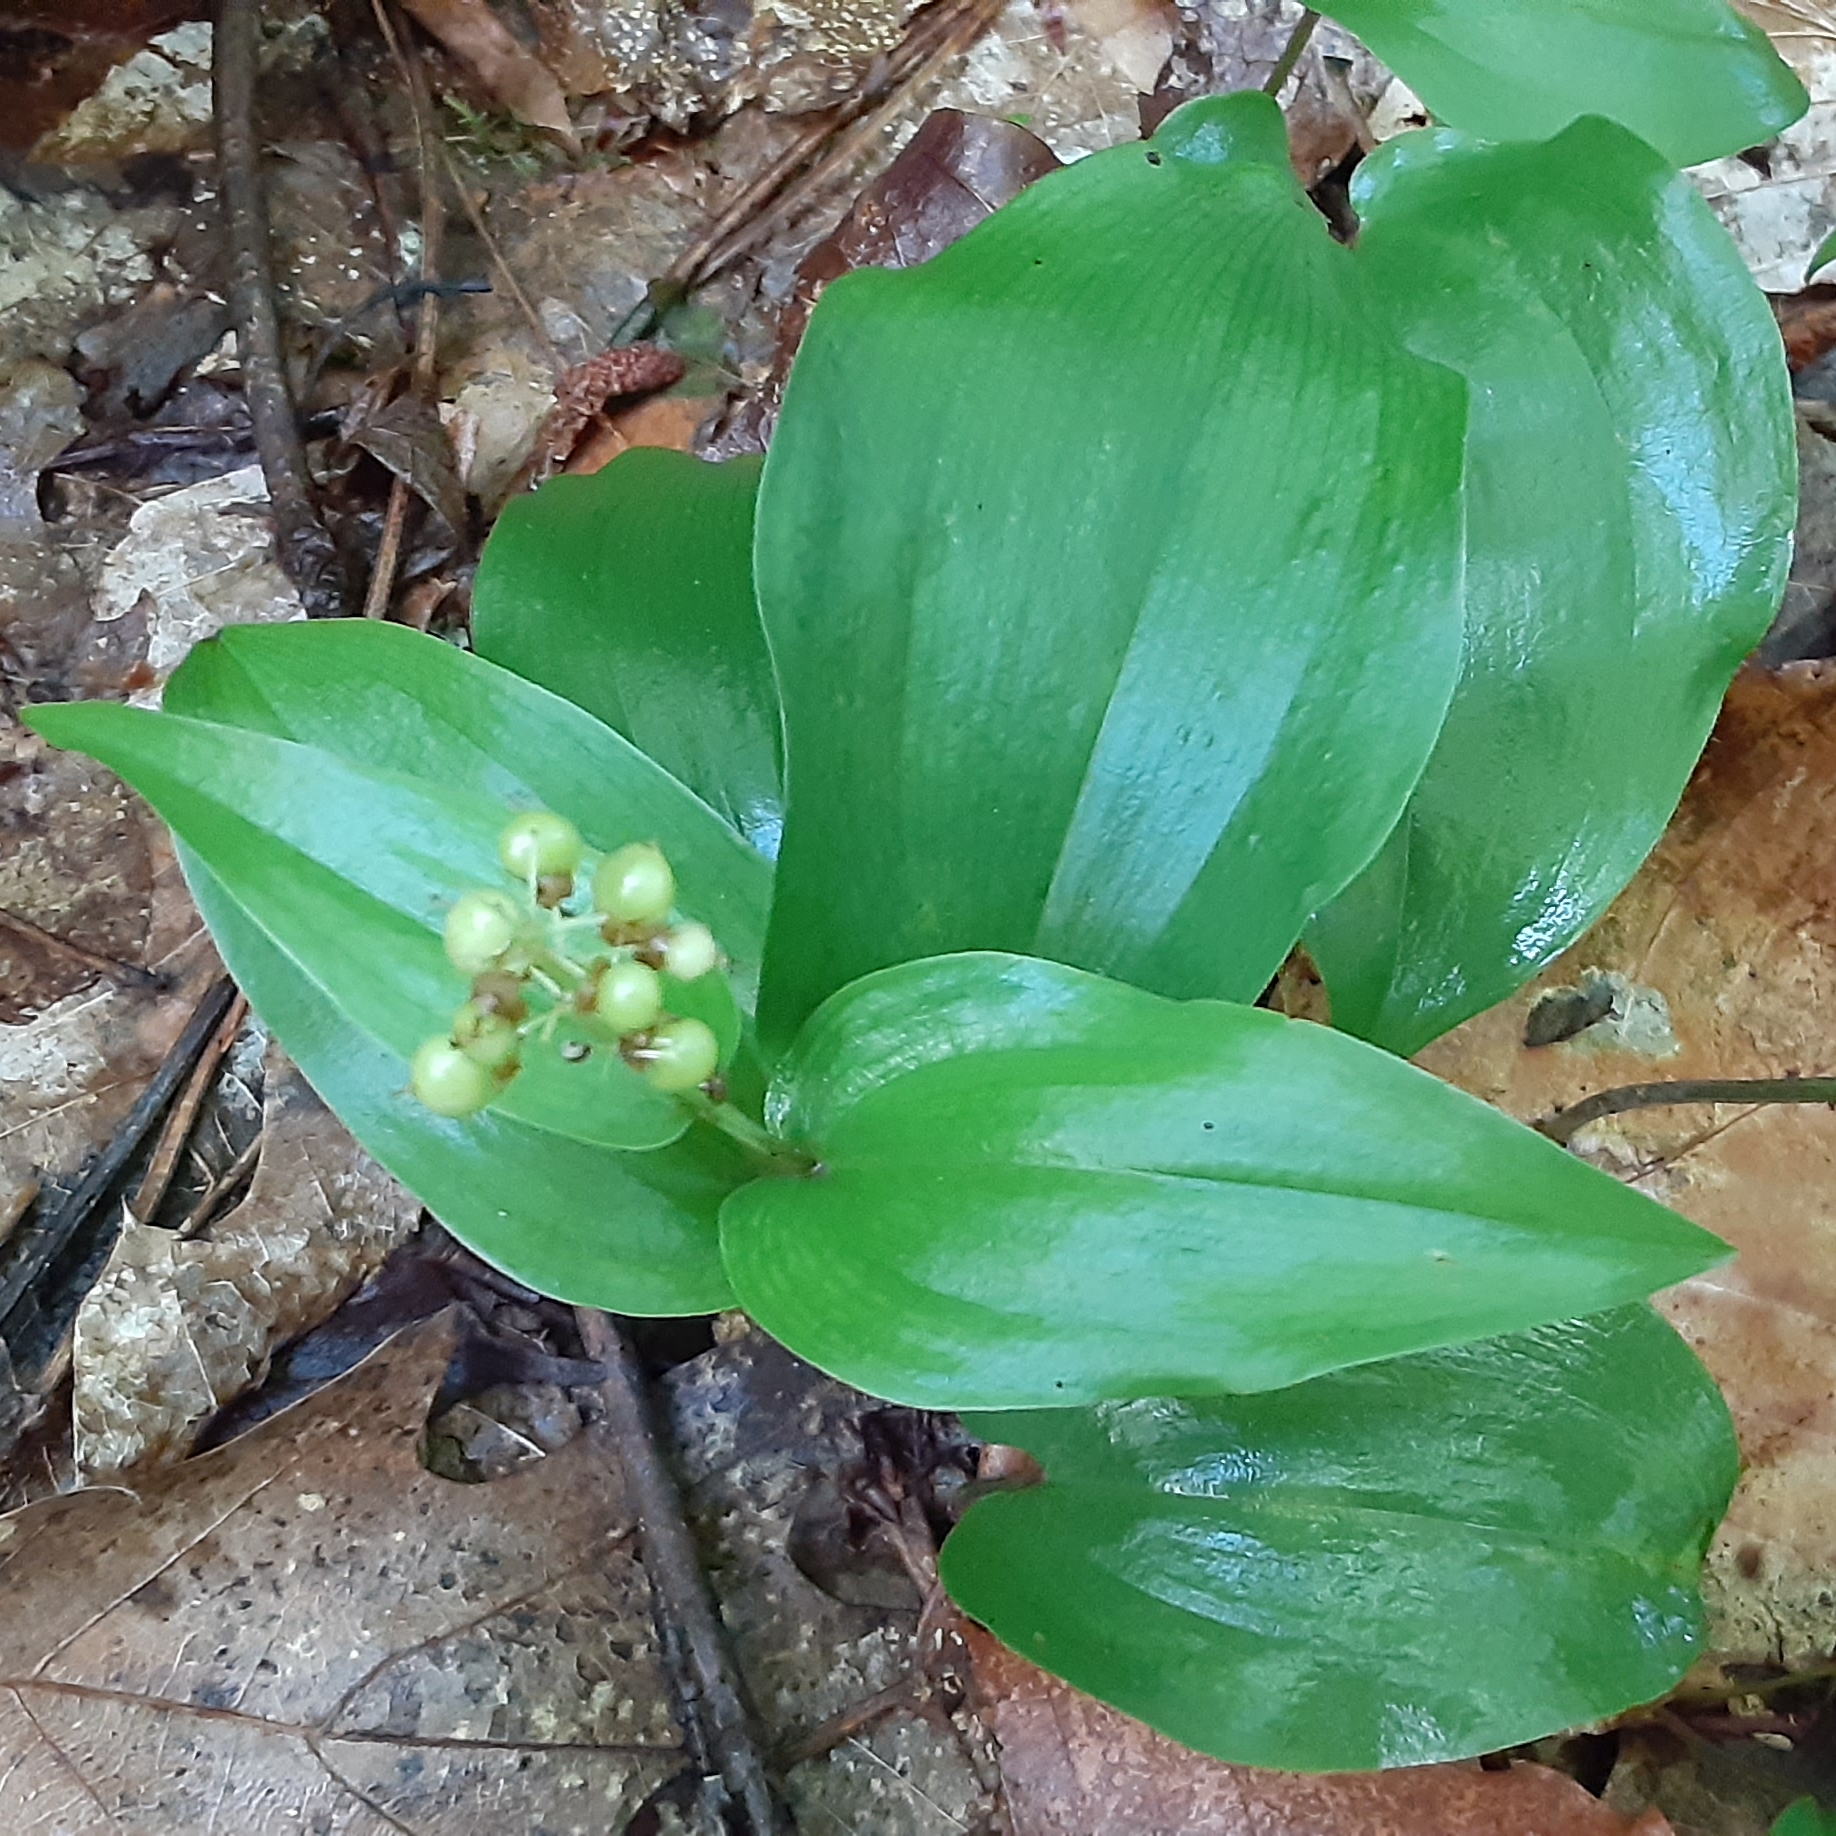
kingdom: Plantae
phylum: Tracheophyta
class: Liliopsida
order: Asparagales
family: Asparagaceae
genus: Maianthemum
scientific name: Maianthemum canadense
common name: False lily-of-the-valley
